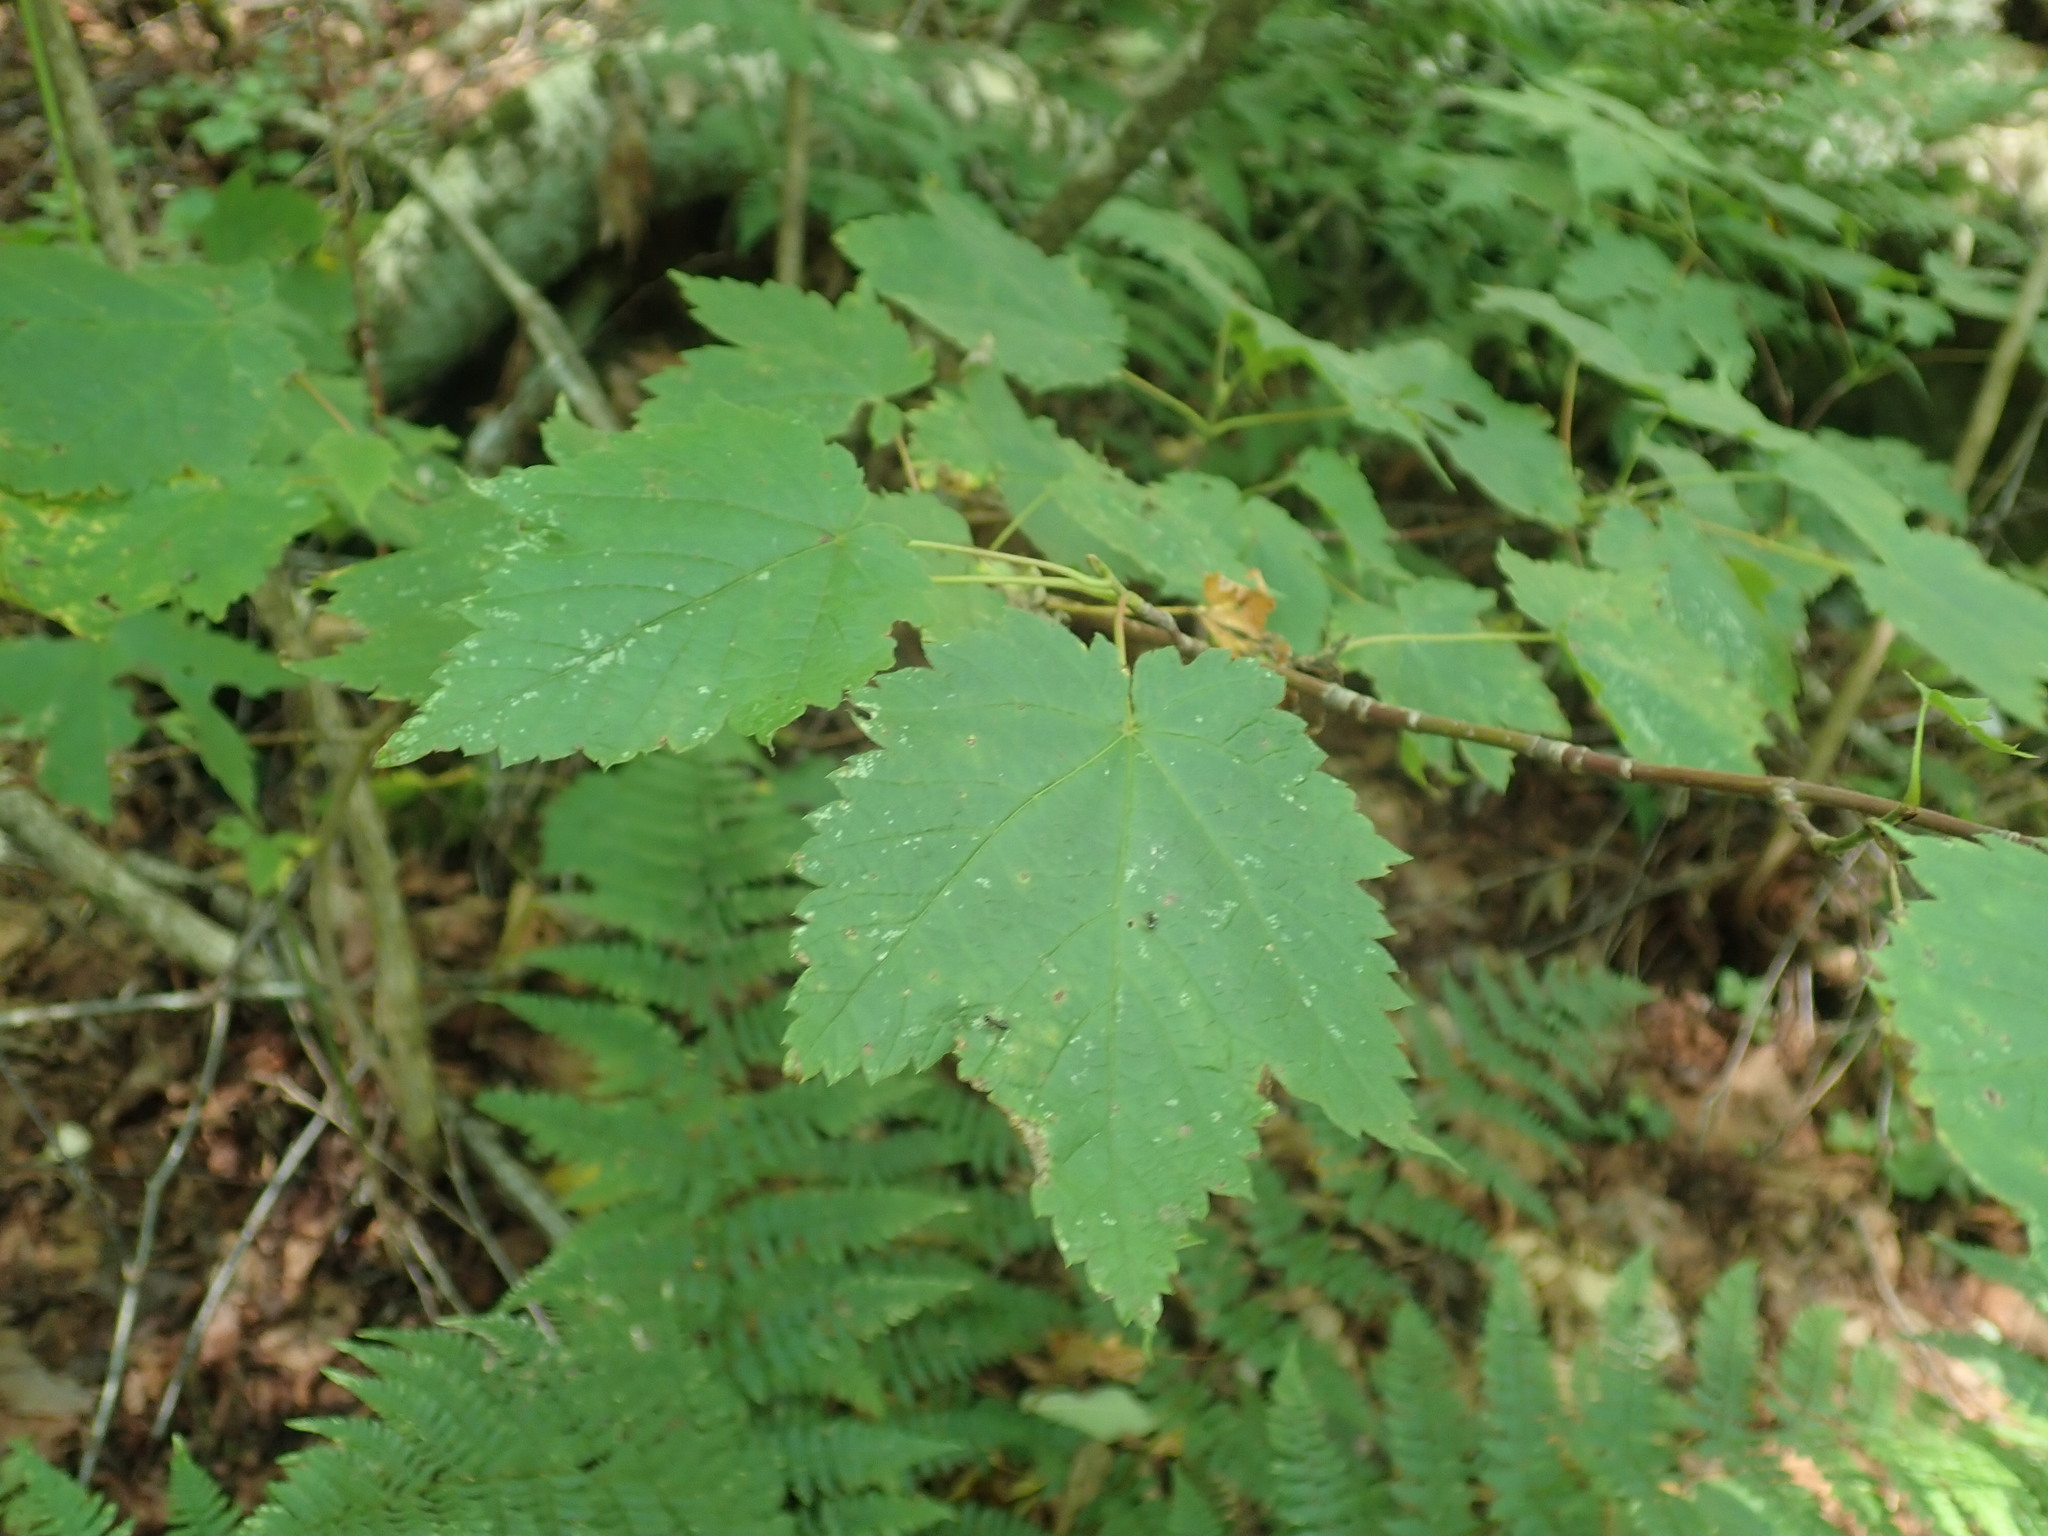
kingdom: Plantae
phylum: Tracheophyta
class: Magnoliopsida
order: Sapindales
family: Sapindaceae
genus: Acer
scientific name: Acer spicatum
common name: Mountain maple
